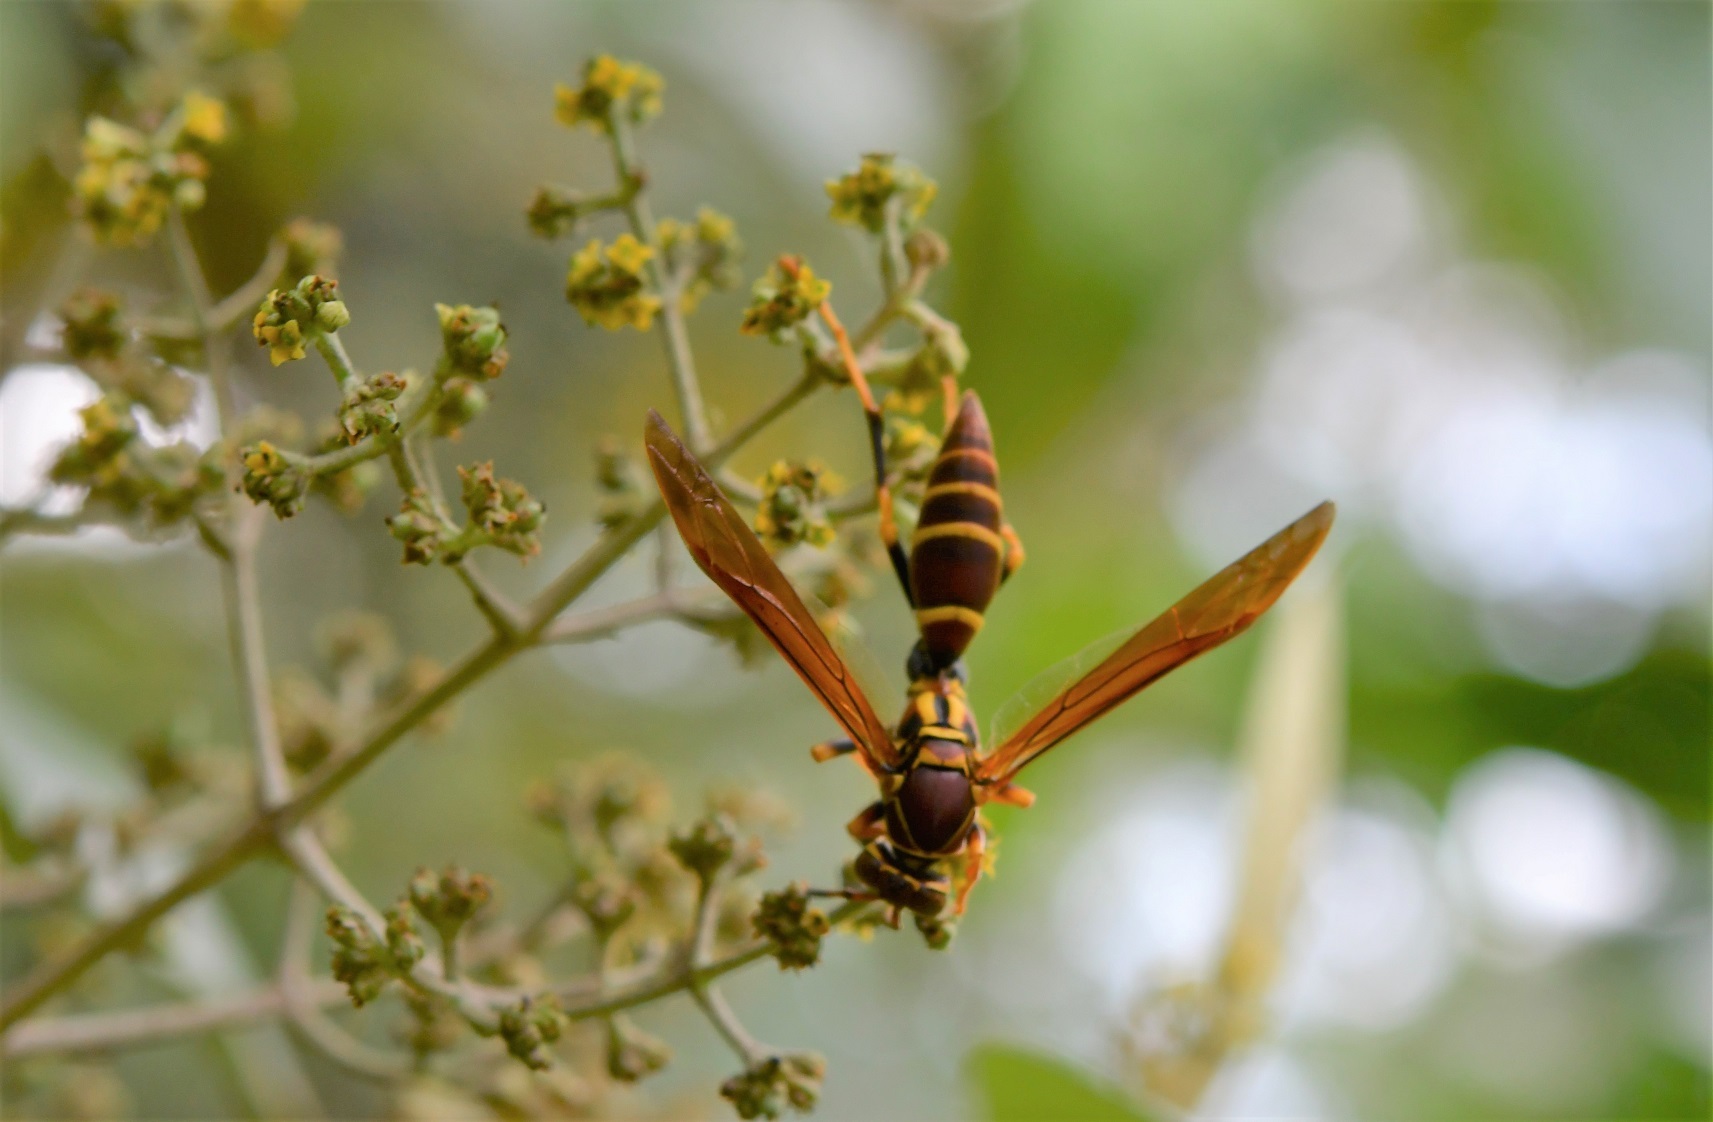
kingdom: Animalia
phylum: Arthropoda
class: Insecta
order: Hymenoptera
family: Eumenidae
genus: Polistes
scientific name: Polistes instabilis
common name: Unstable paper wasp
